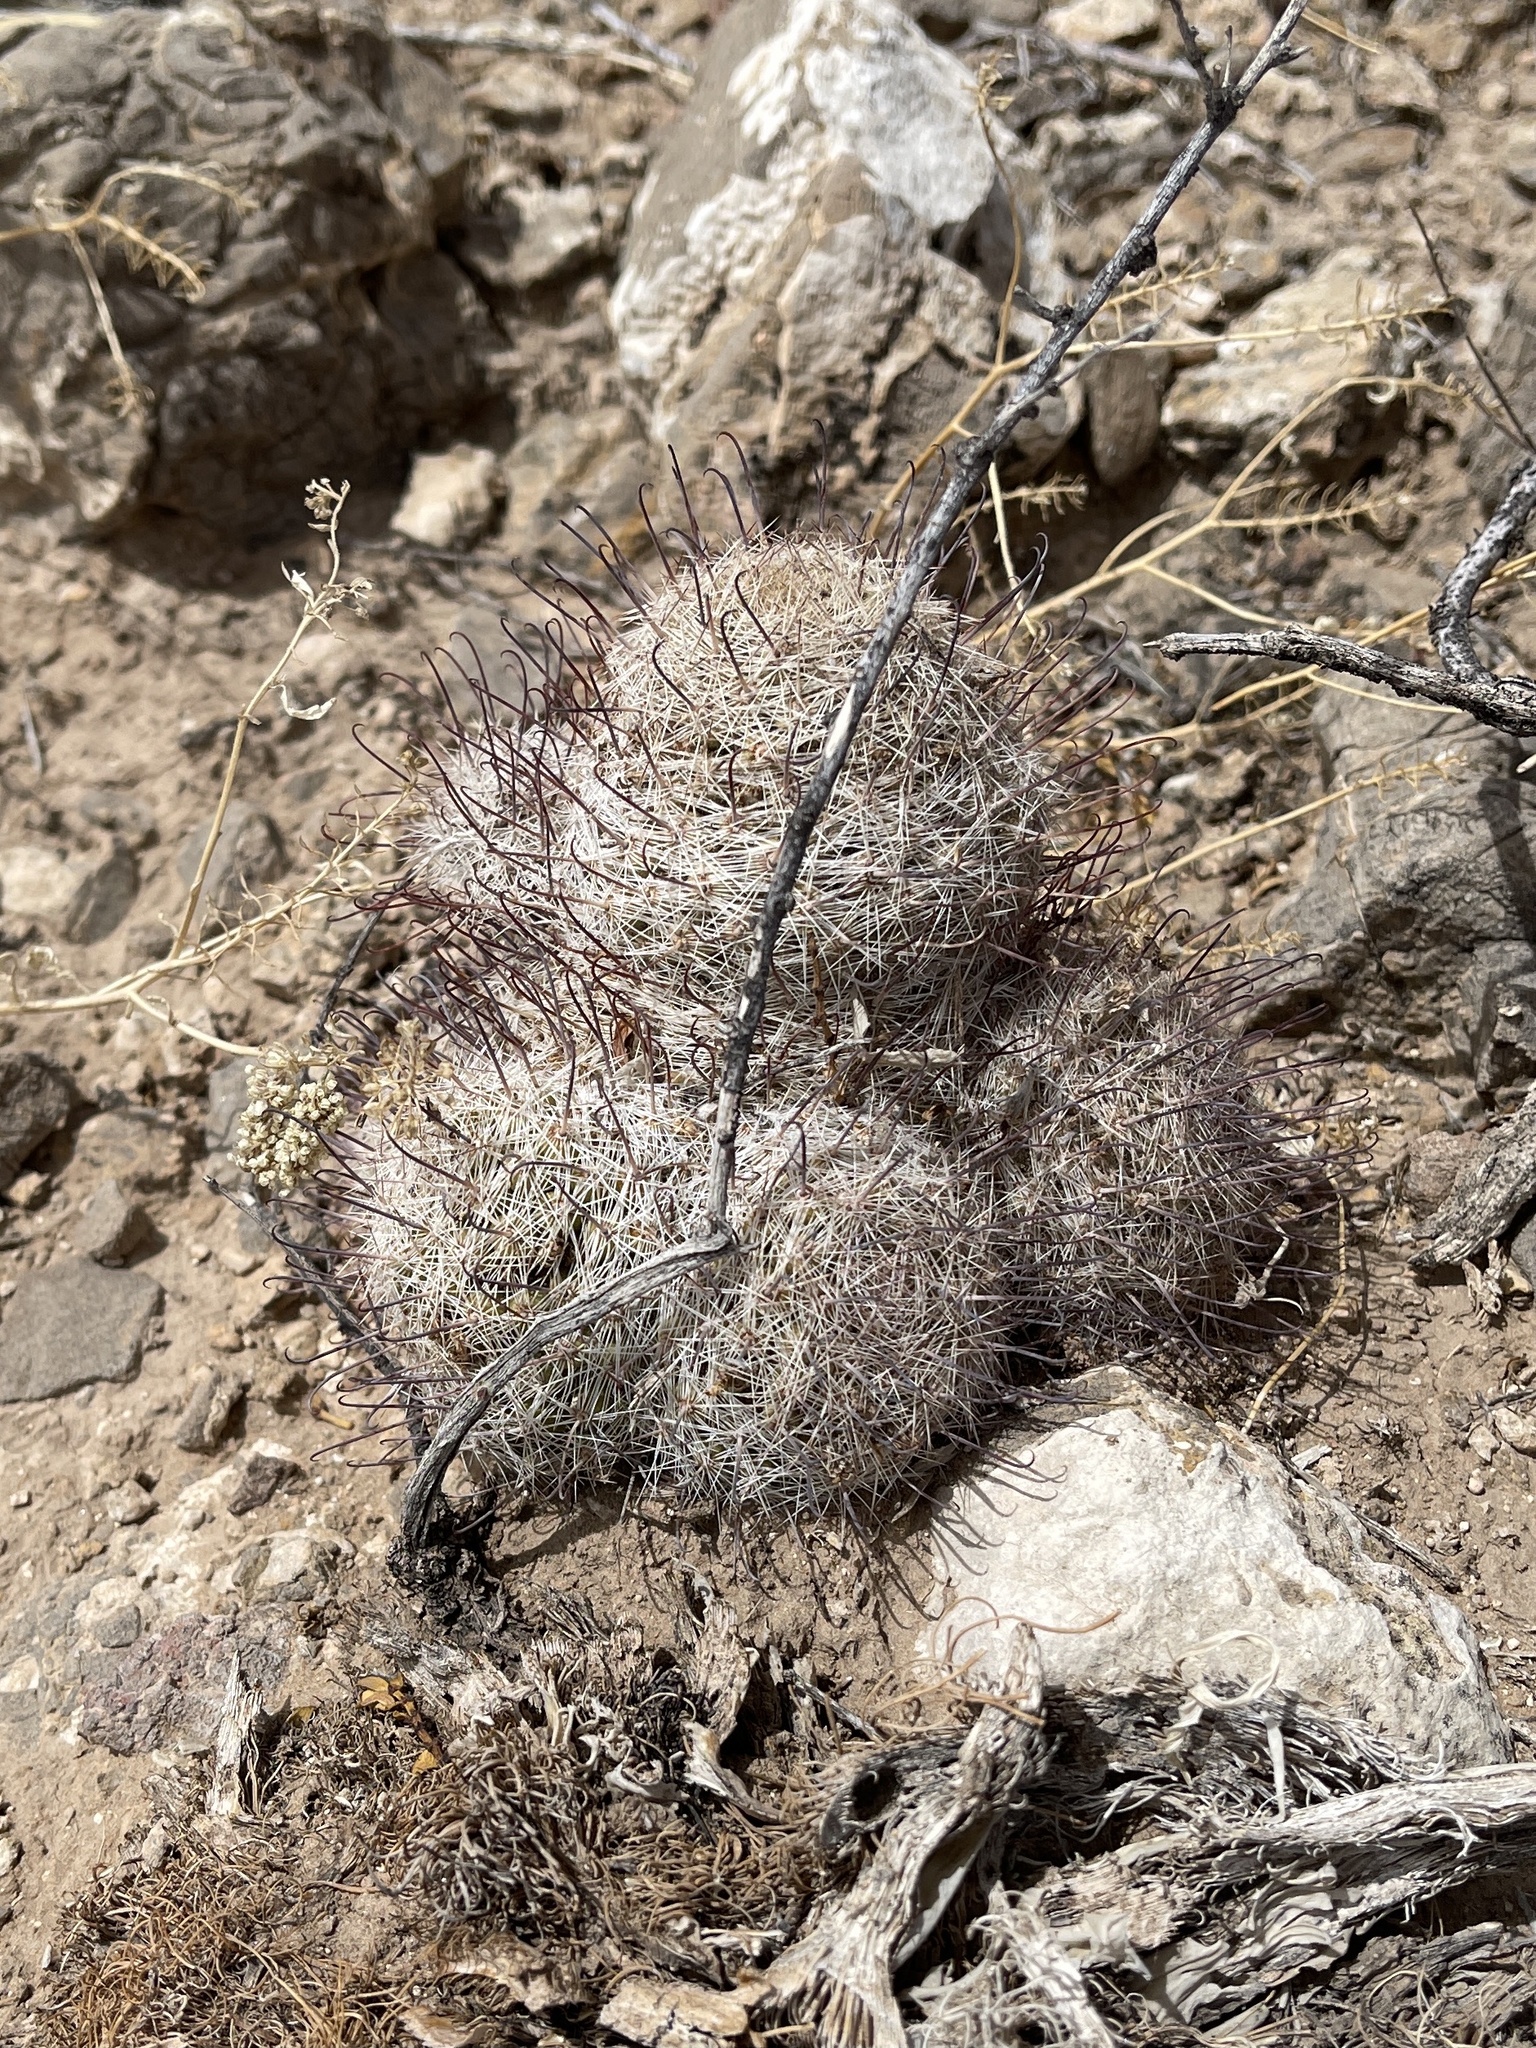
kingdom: Plantae
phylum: Tracheophyta
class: Magnoliopsida
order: Caryophyllales
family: Cactaceae
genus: Cochemiea
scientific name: Cochemiea grahamii
